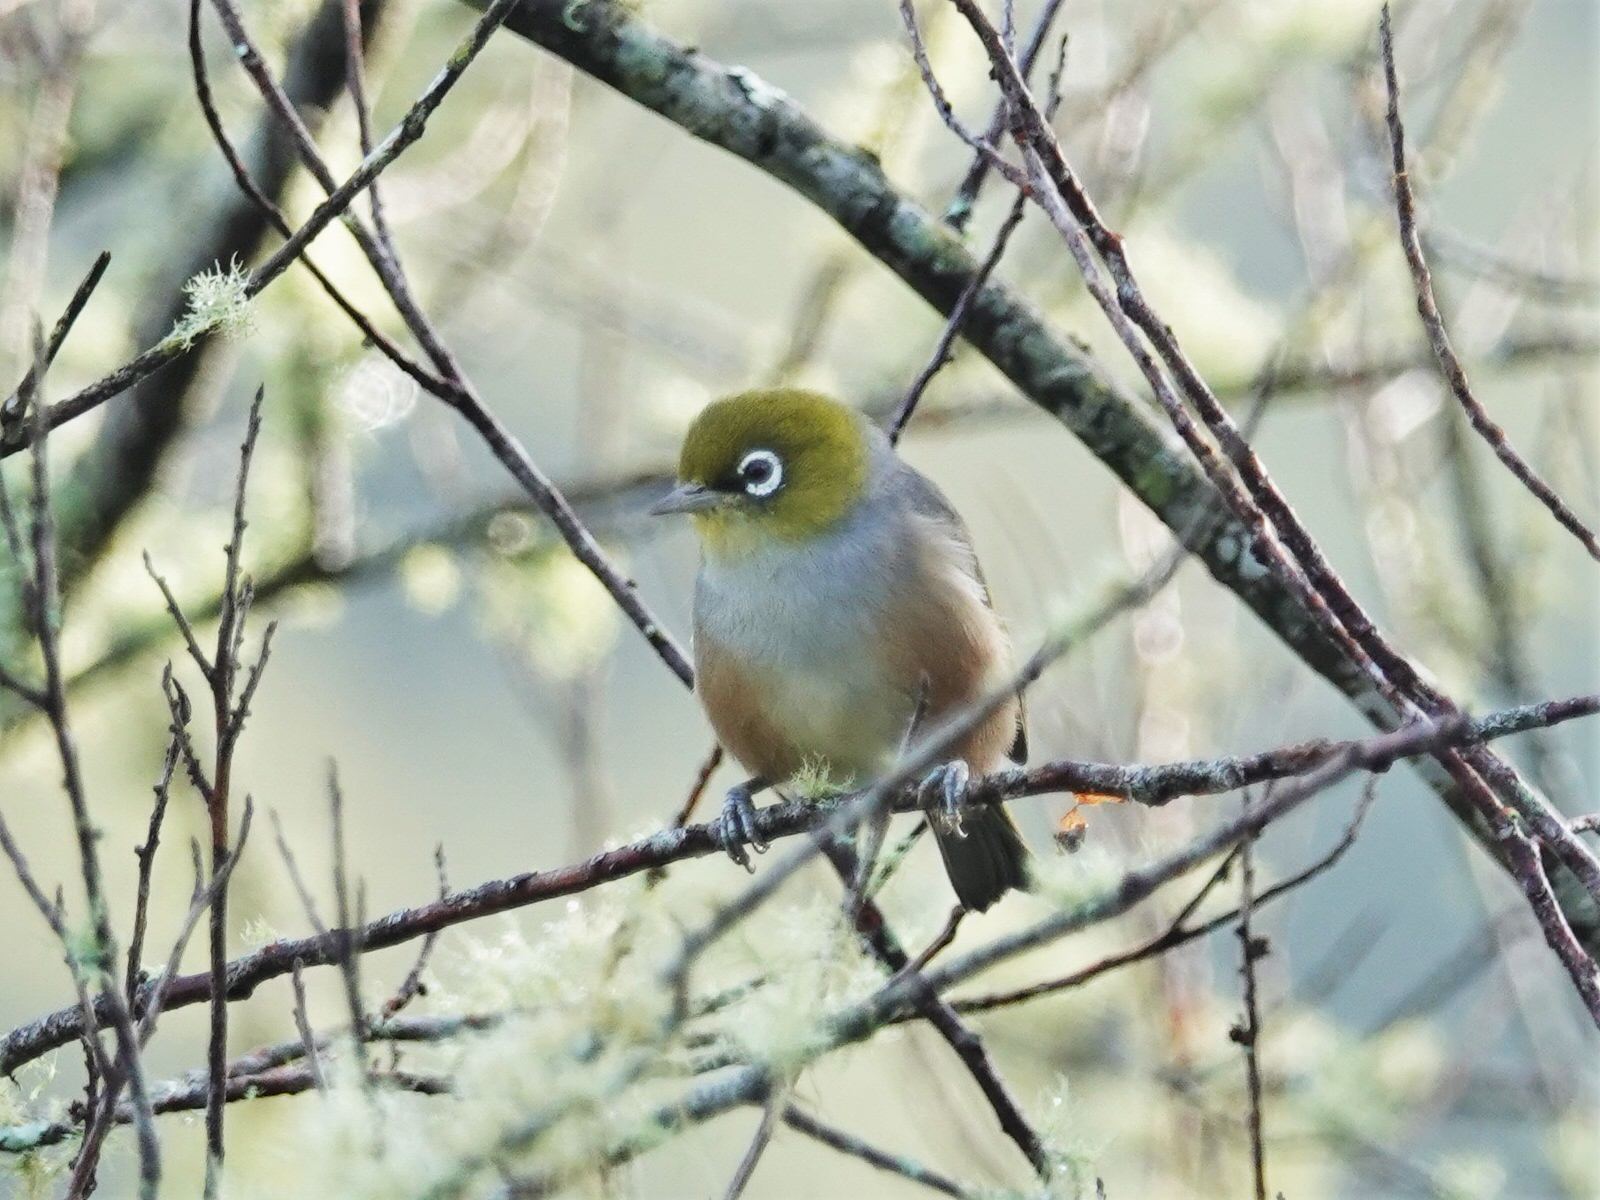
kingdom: Animalia
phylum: Chordata
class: Aves
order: Passeriformes
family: Zosteropidae
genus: Zosterops
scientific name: Zosterops lateralis
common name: Silvereye
